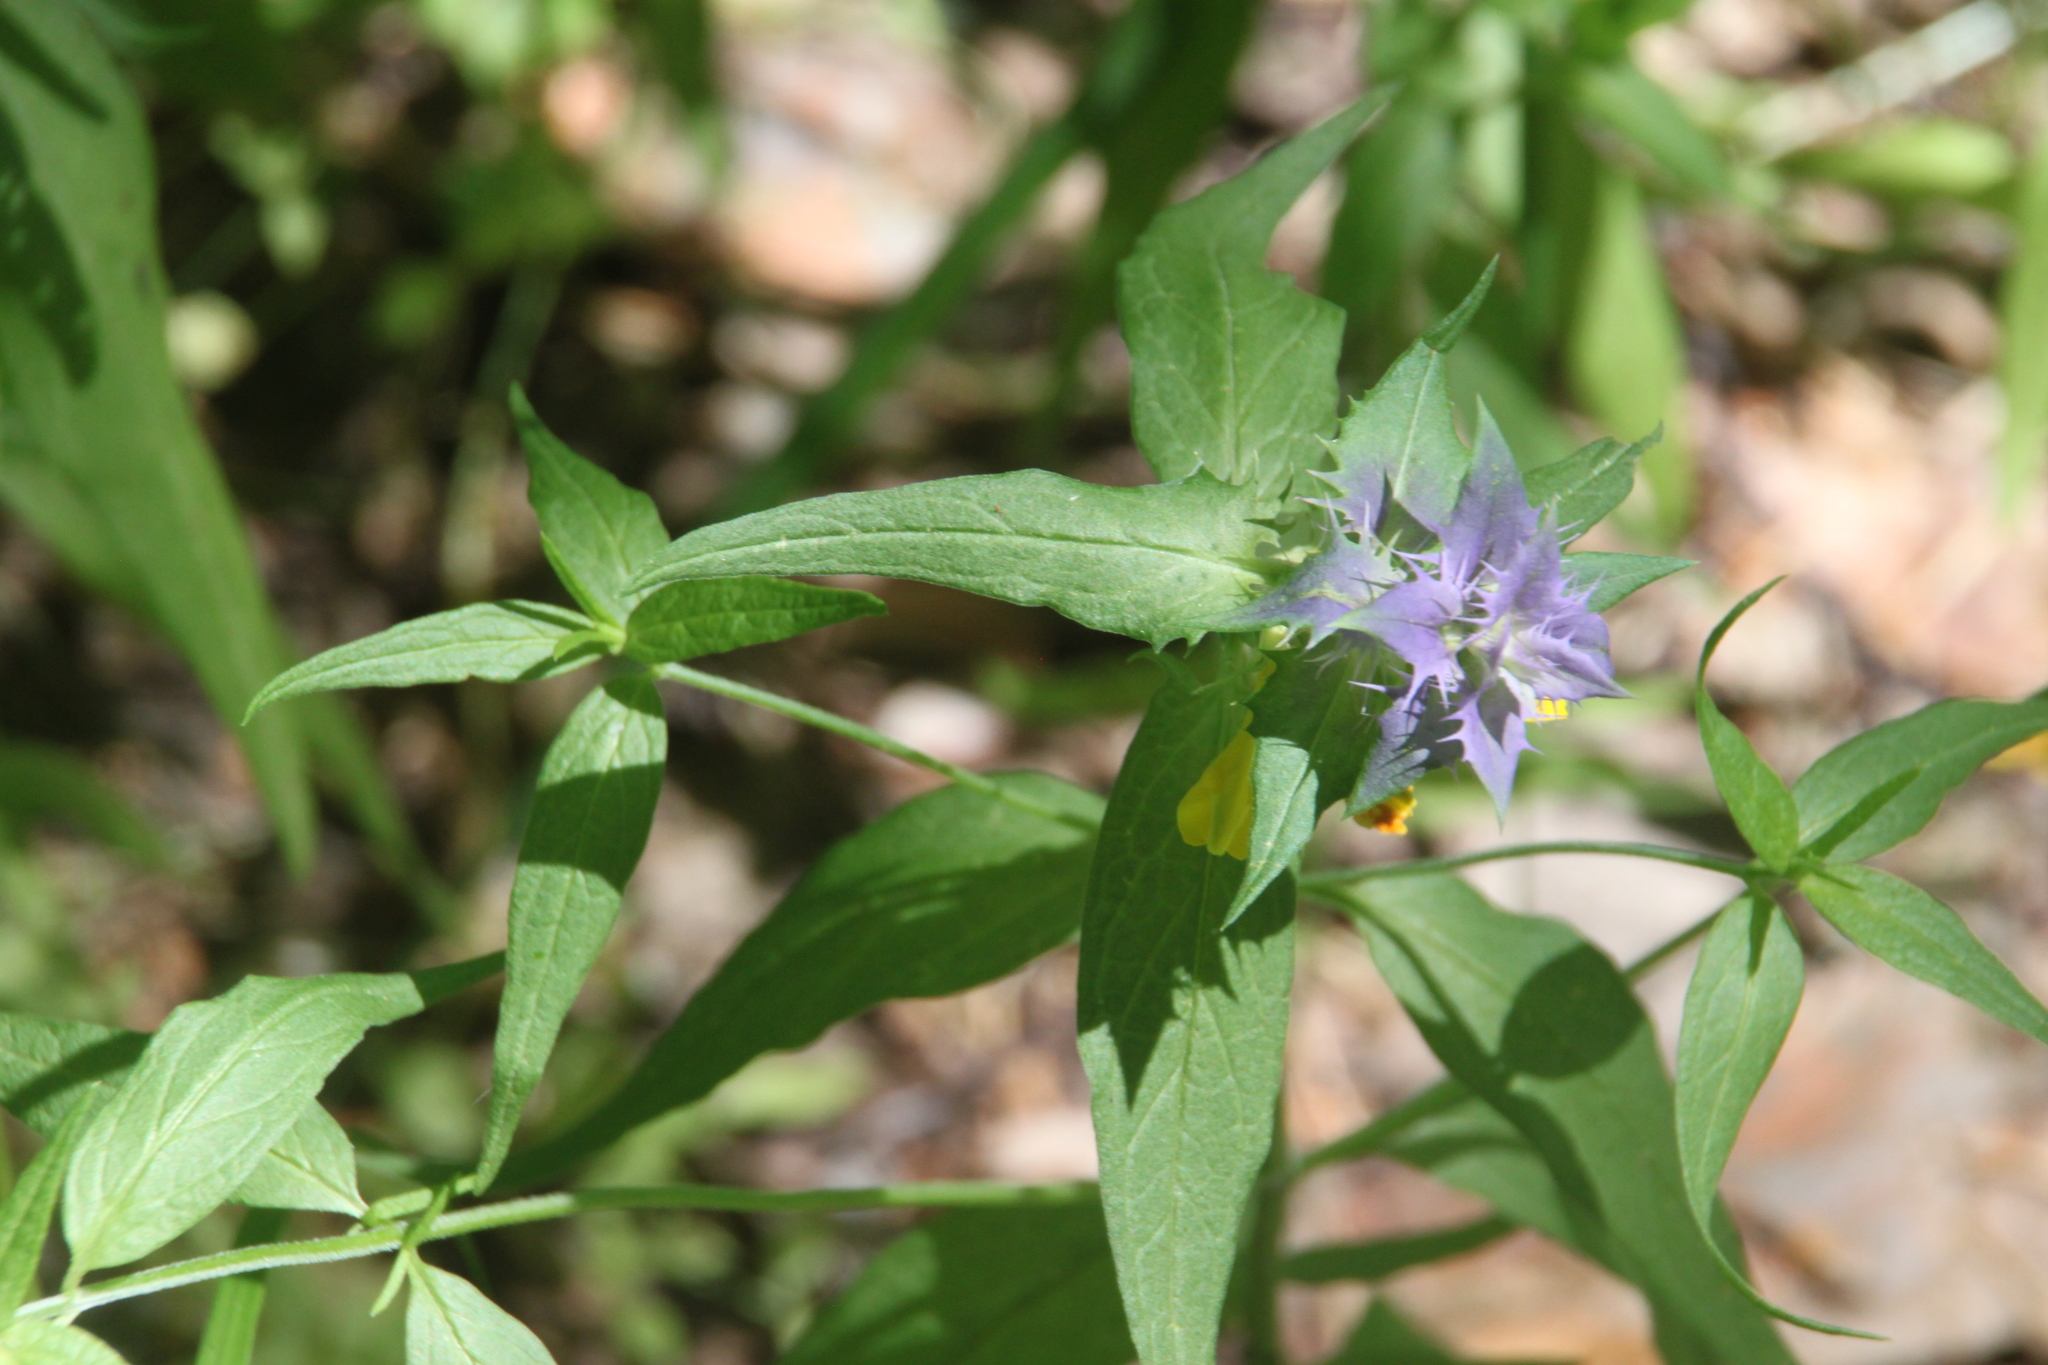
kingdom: Plantae
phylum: Tracheophyta
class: Magnoliopsida
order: Lamiales
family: Orobanchaceae
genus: Melampyrum
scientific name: Melampyrum nemorosum
